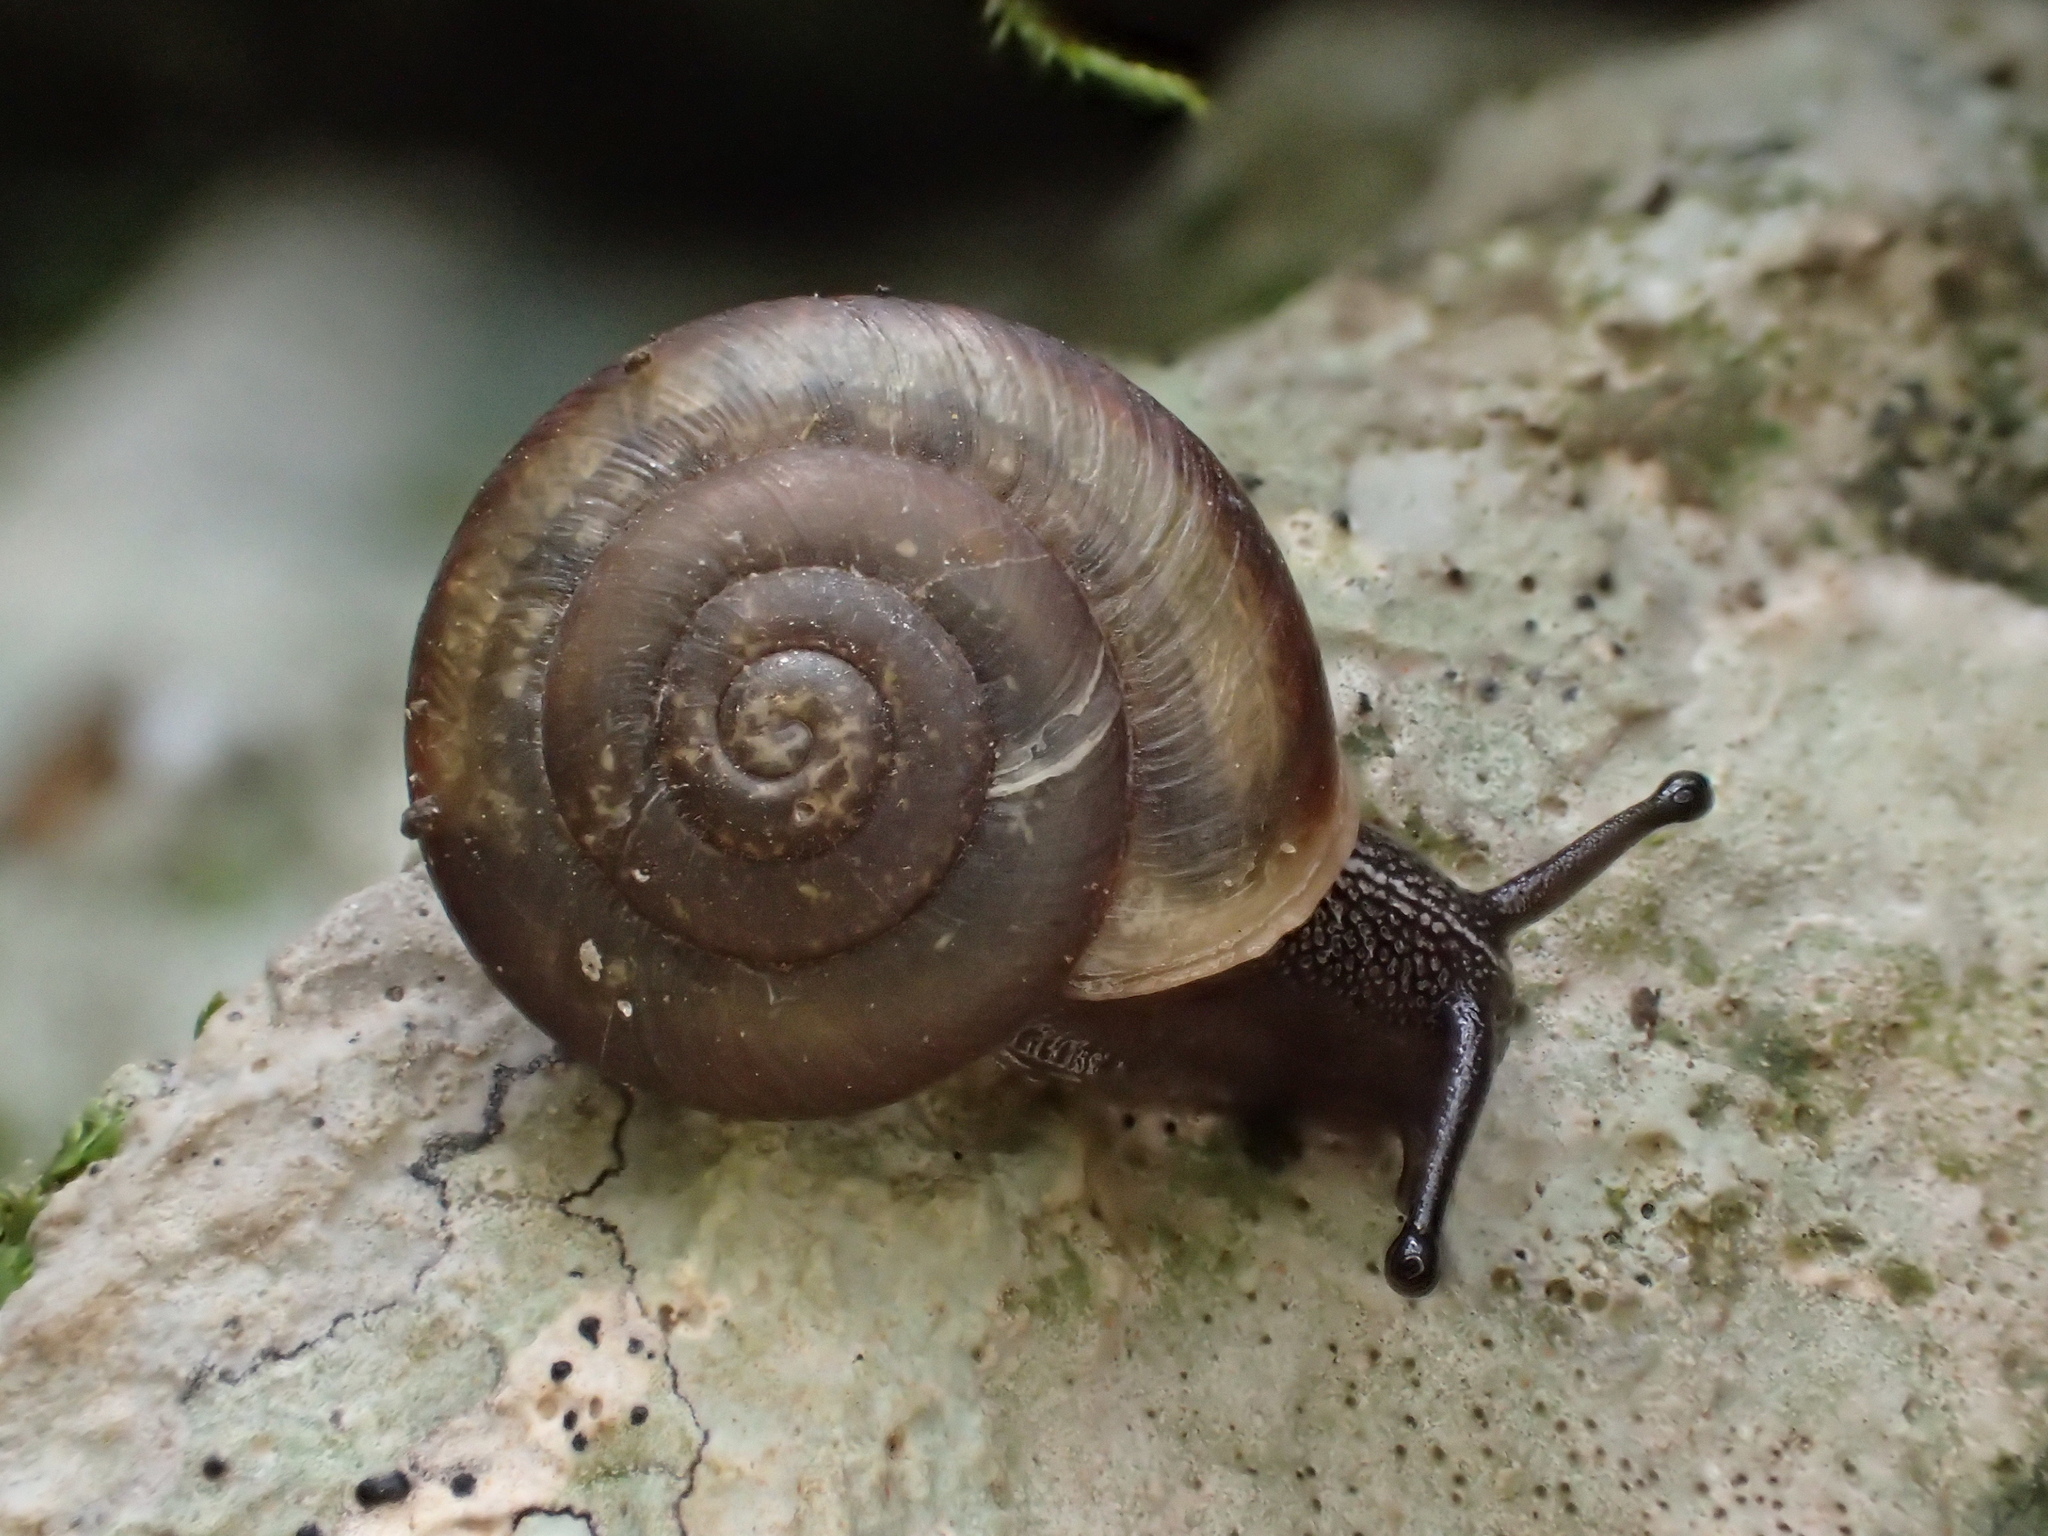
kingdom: Animalia
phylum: Mollusca
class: Gastropoda
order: Stylommatophora
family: Helicidae
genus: Corneola
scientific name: Corneola squamatina
